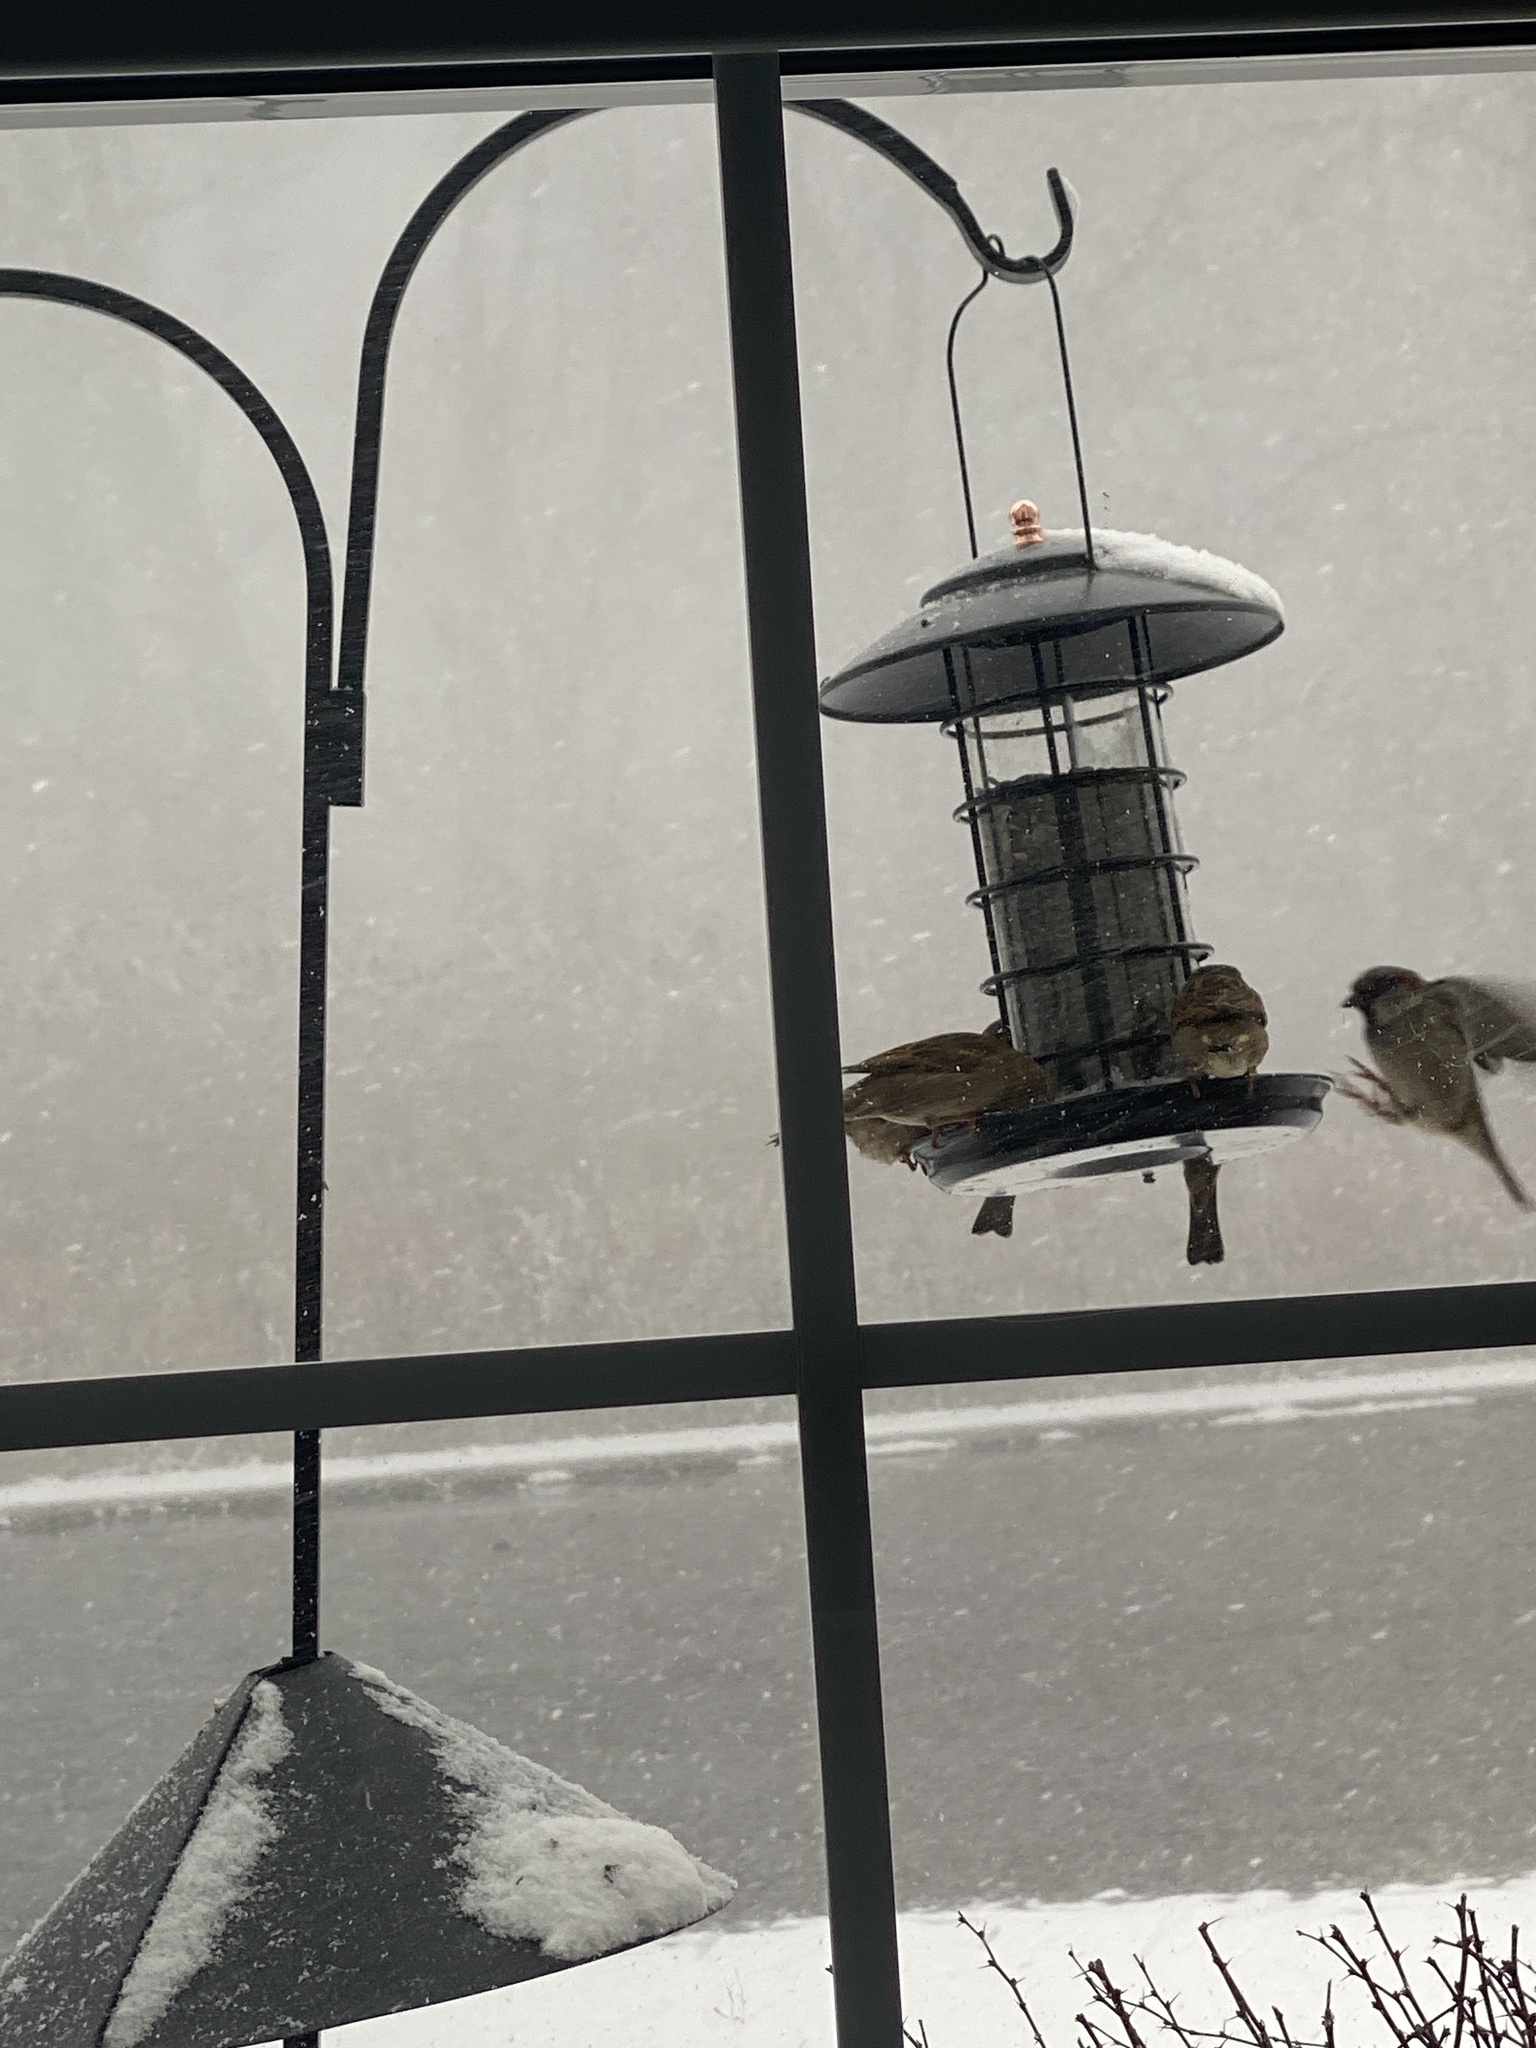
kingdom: Animalia
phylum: Chordata
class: Aves
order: Passeriformes
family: Passeridae
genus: Passer
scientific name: Passer domesticus
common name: House sparrow
